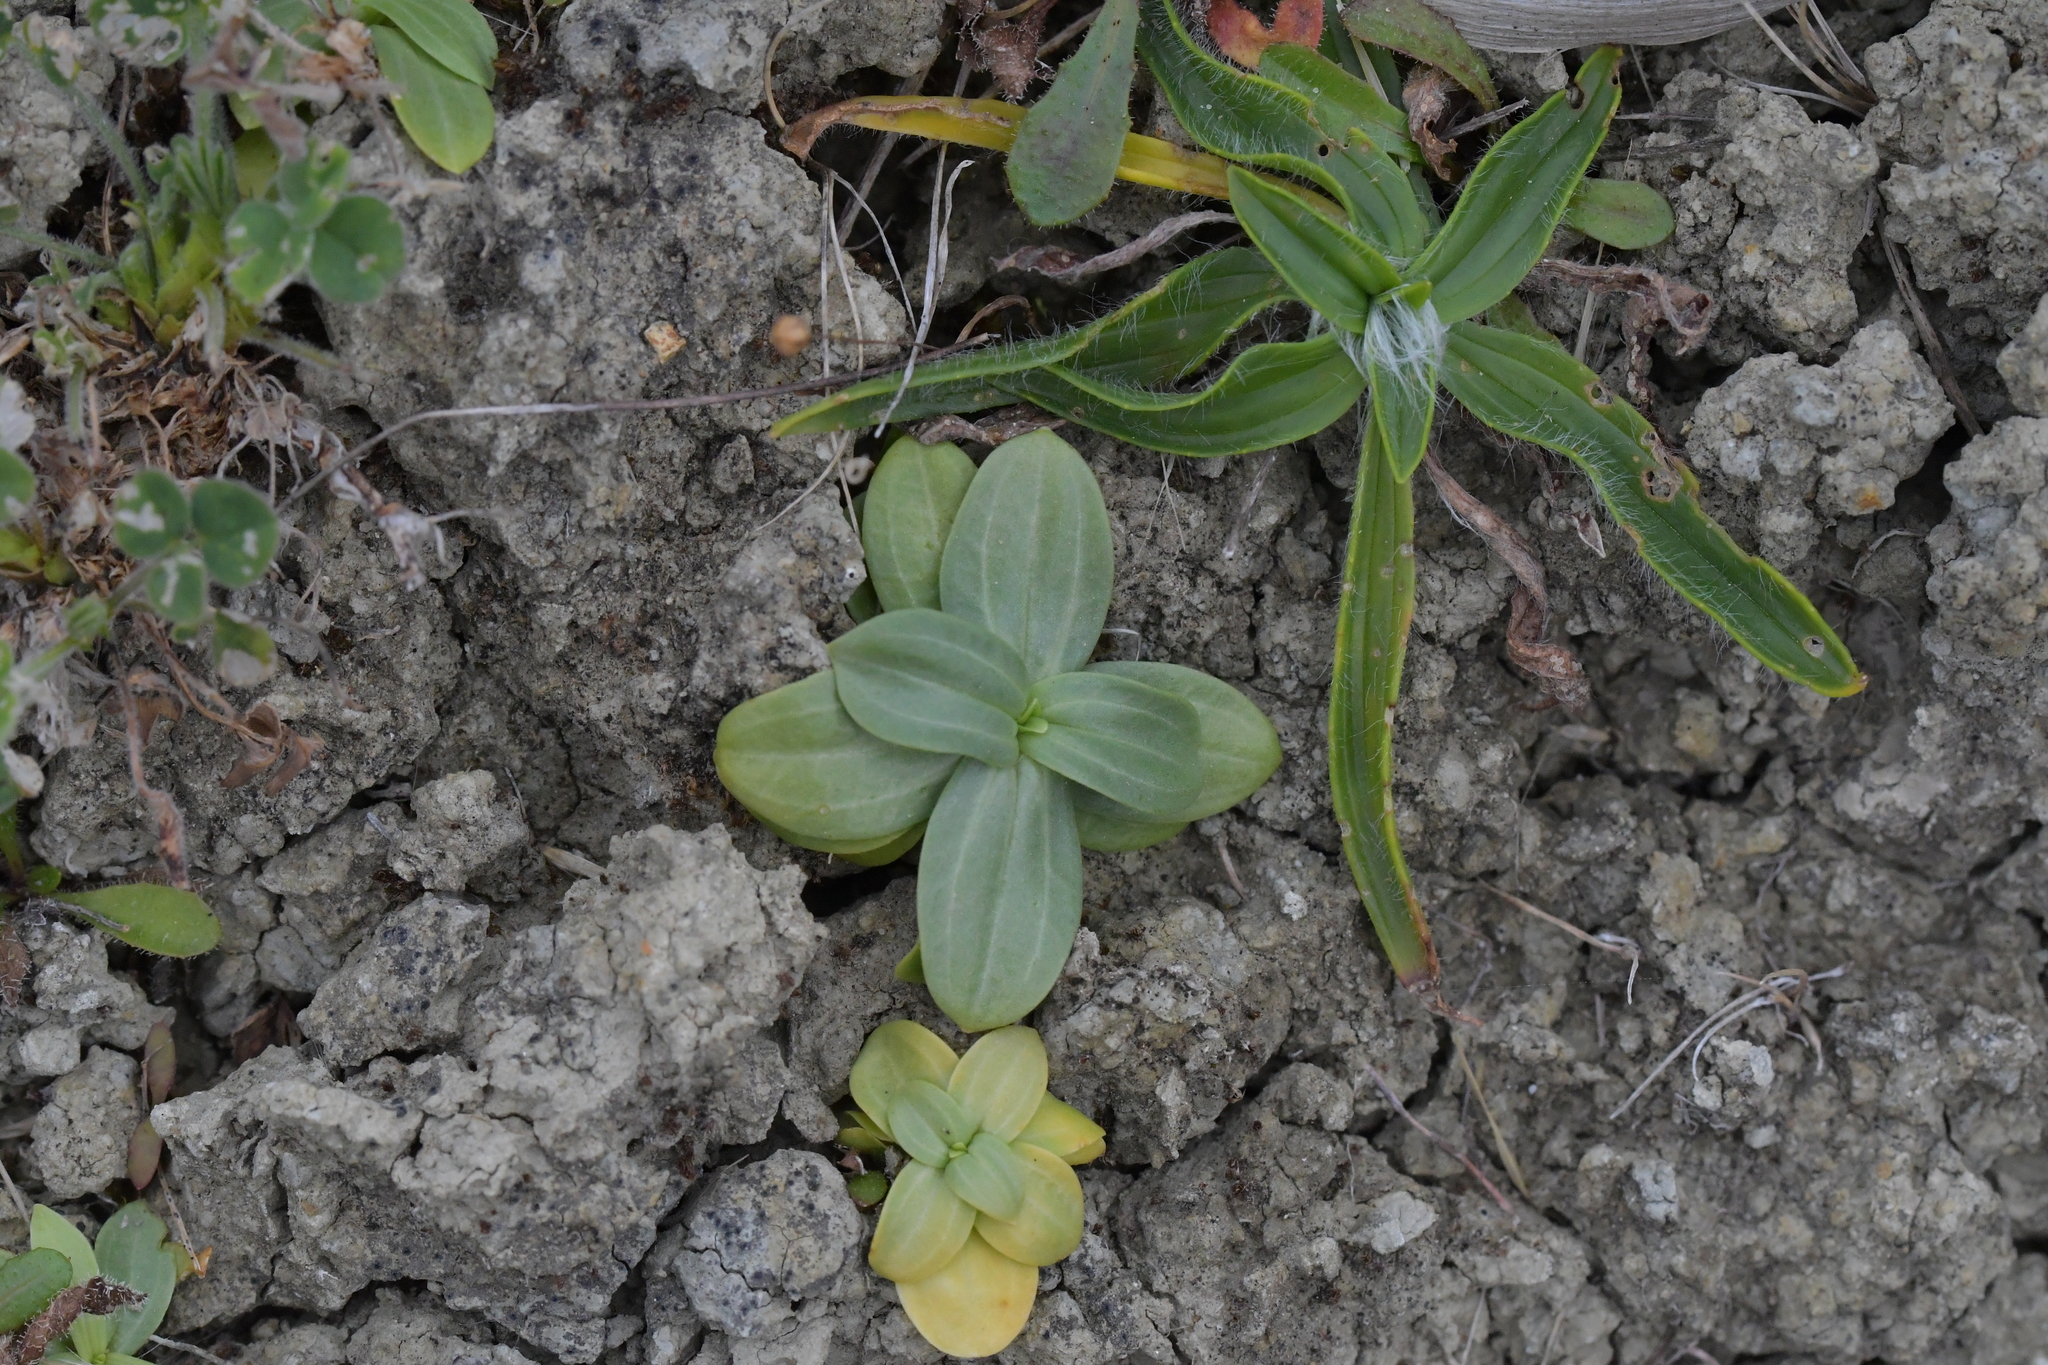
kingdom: Plantae
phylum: Tracheophyta
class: Magnoliopsida
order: Gentianales
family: Gentianaceae
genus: Centaurium
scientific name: Centaurium erythraea
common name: Common centaury
